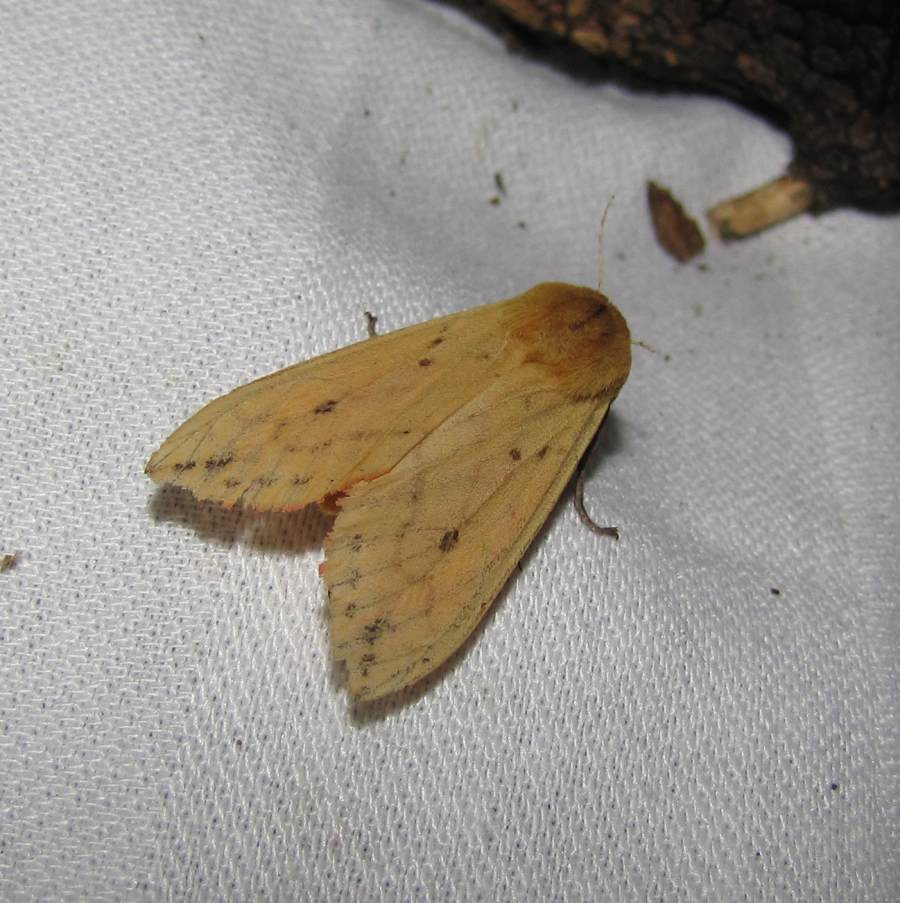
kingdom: Animalia
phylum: Arthropoda
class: Insecta
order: Lepidoptera
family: Erebidae
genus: Pyrrharctia
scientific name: Pyrrharctia isabella
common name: Isabella tiger moth
